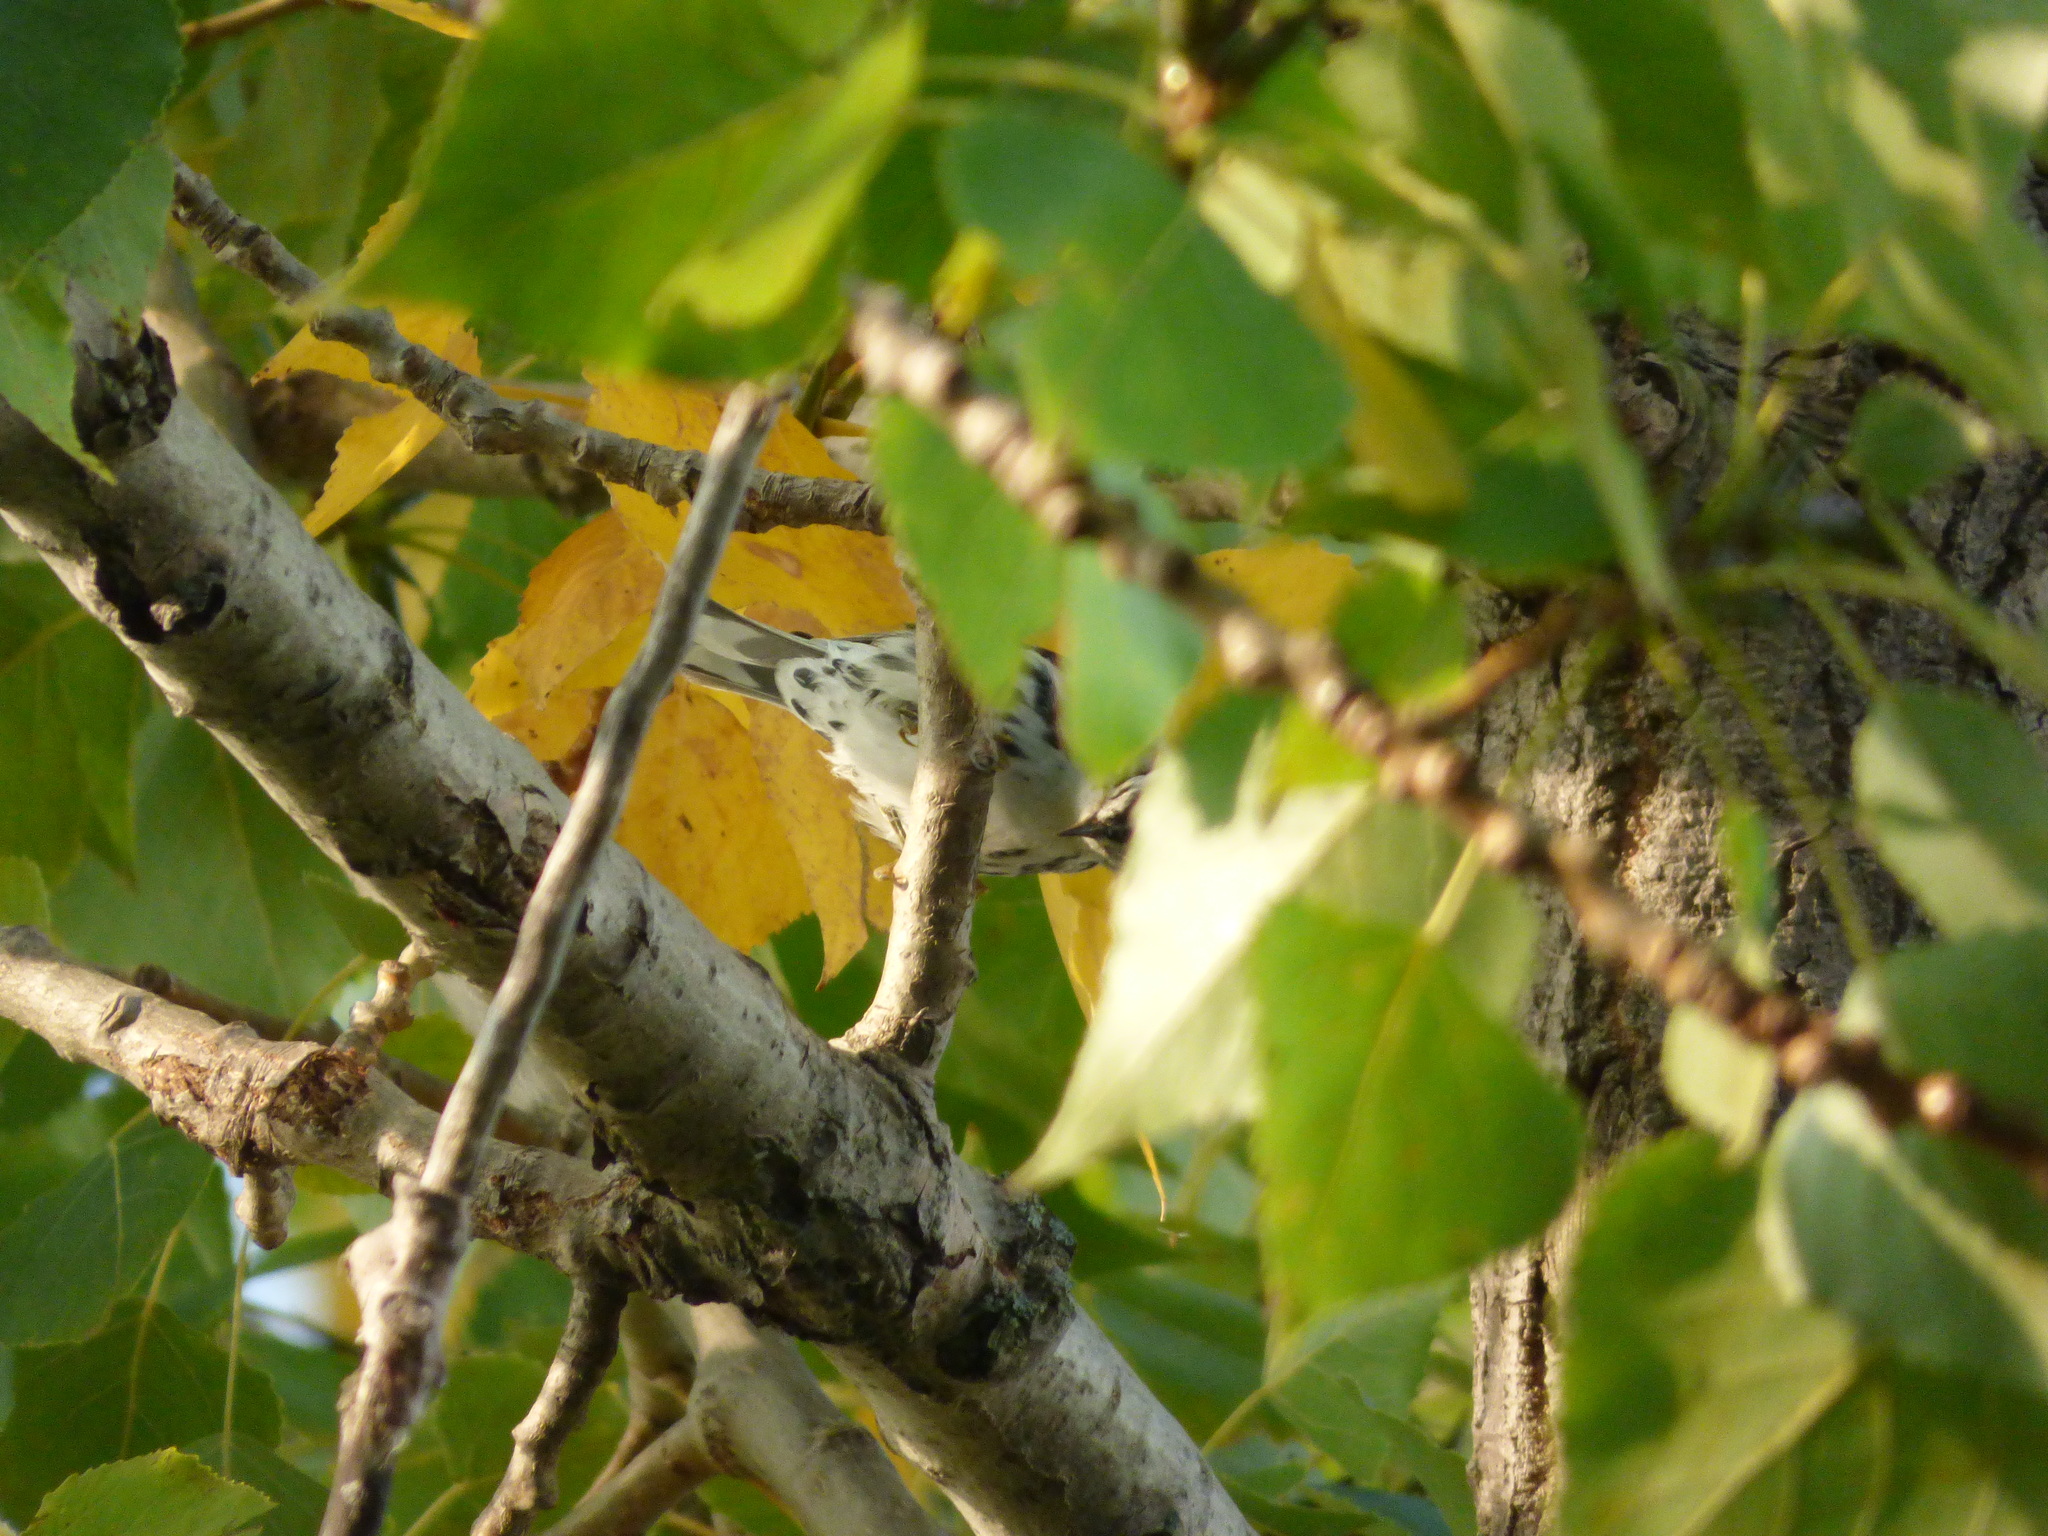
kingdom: Animalia
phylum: Chordata
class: Aves
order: Passeriformes
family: Parulidae
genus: Mniotilta
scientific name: Mniotilta varia
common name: Black-and-white warbler
